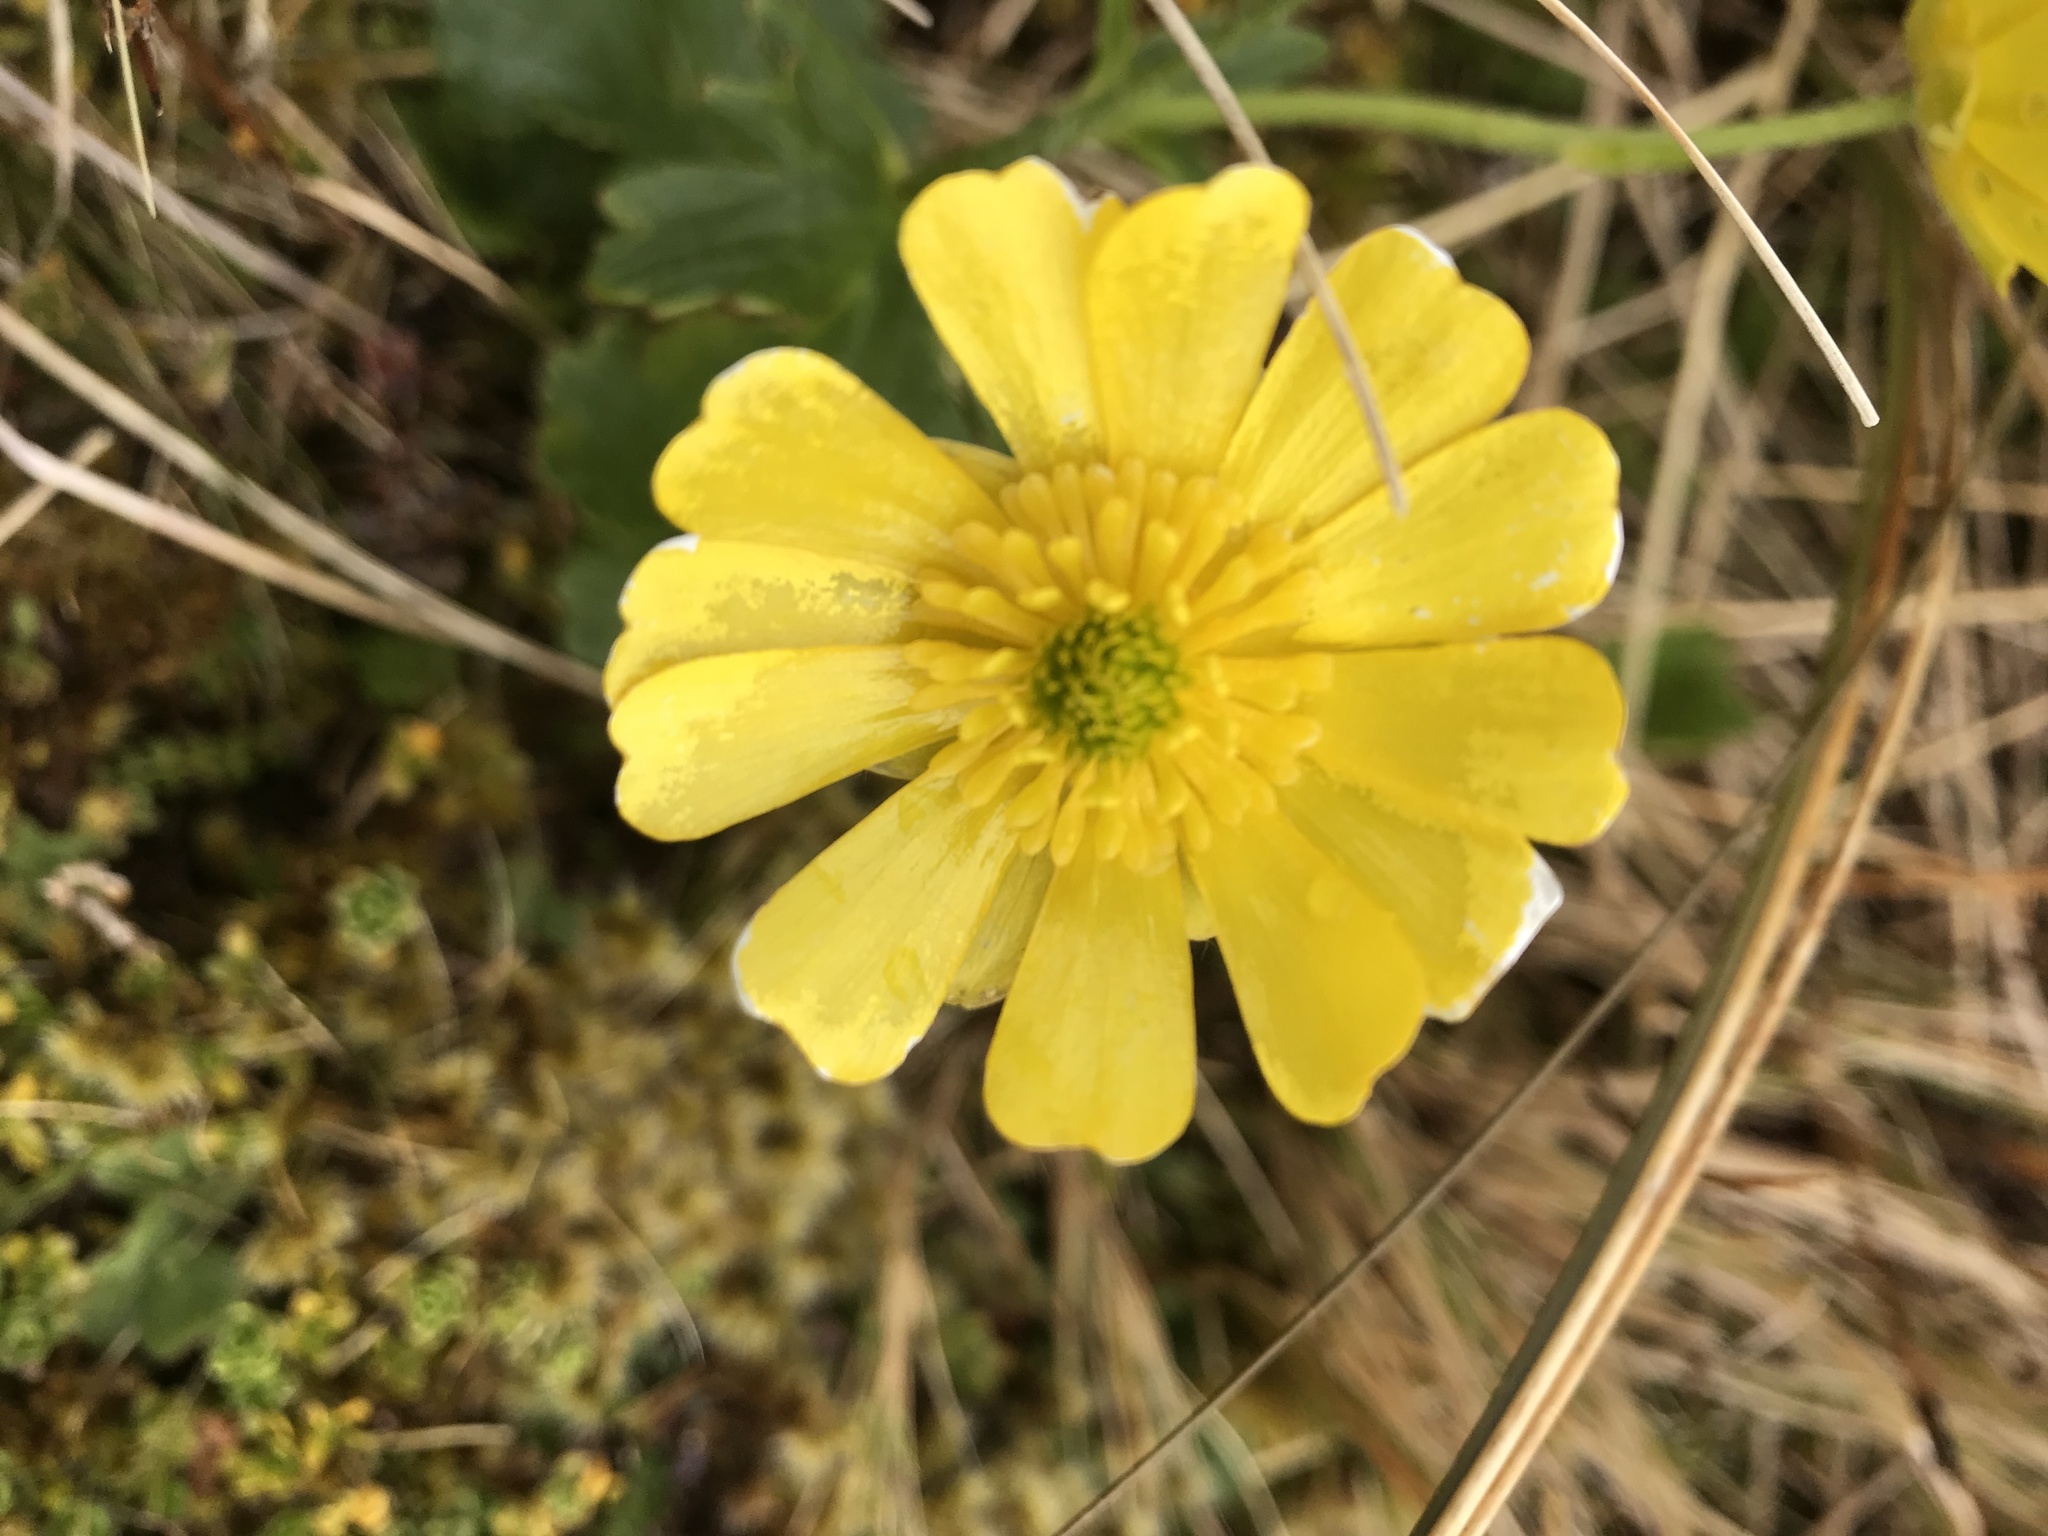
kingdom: Plantae
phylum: Tracheophyta
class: Magnoliopsida
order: Ranunculales
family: Ranunculaceae
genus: Ranunculus
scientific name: Ranunculus nivicola
